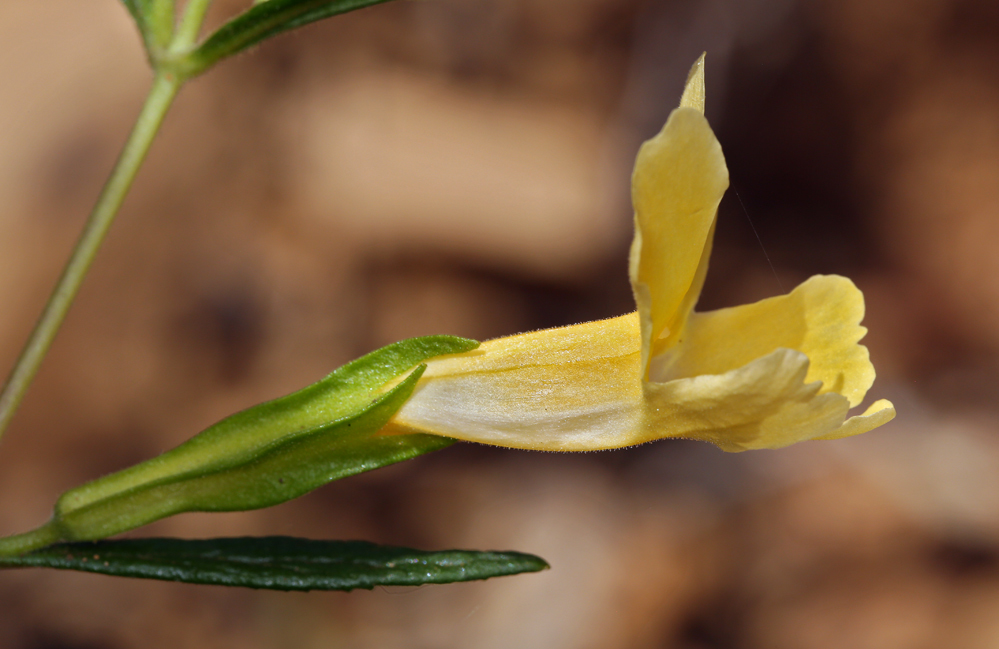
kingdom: Plantae
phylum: Tracheophyta
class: Magnoliopsida
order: Lamiales
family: Phrymaceae
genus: Diplacus
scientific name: Diplacus longiflorus
